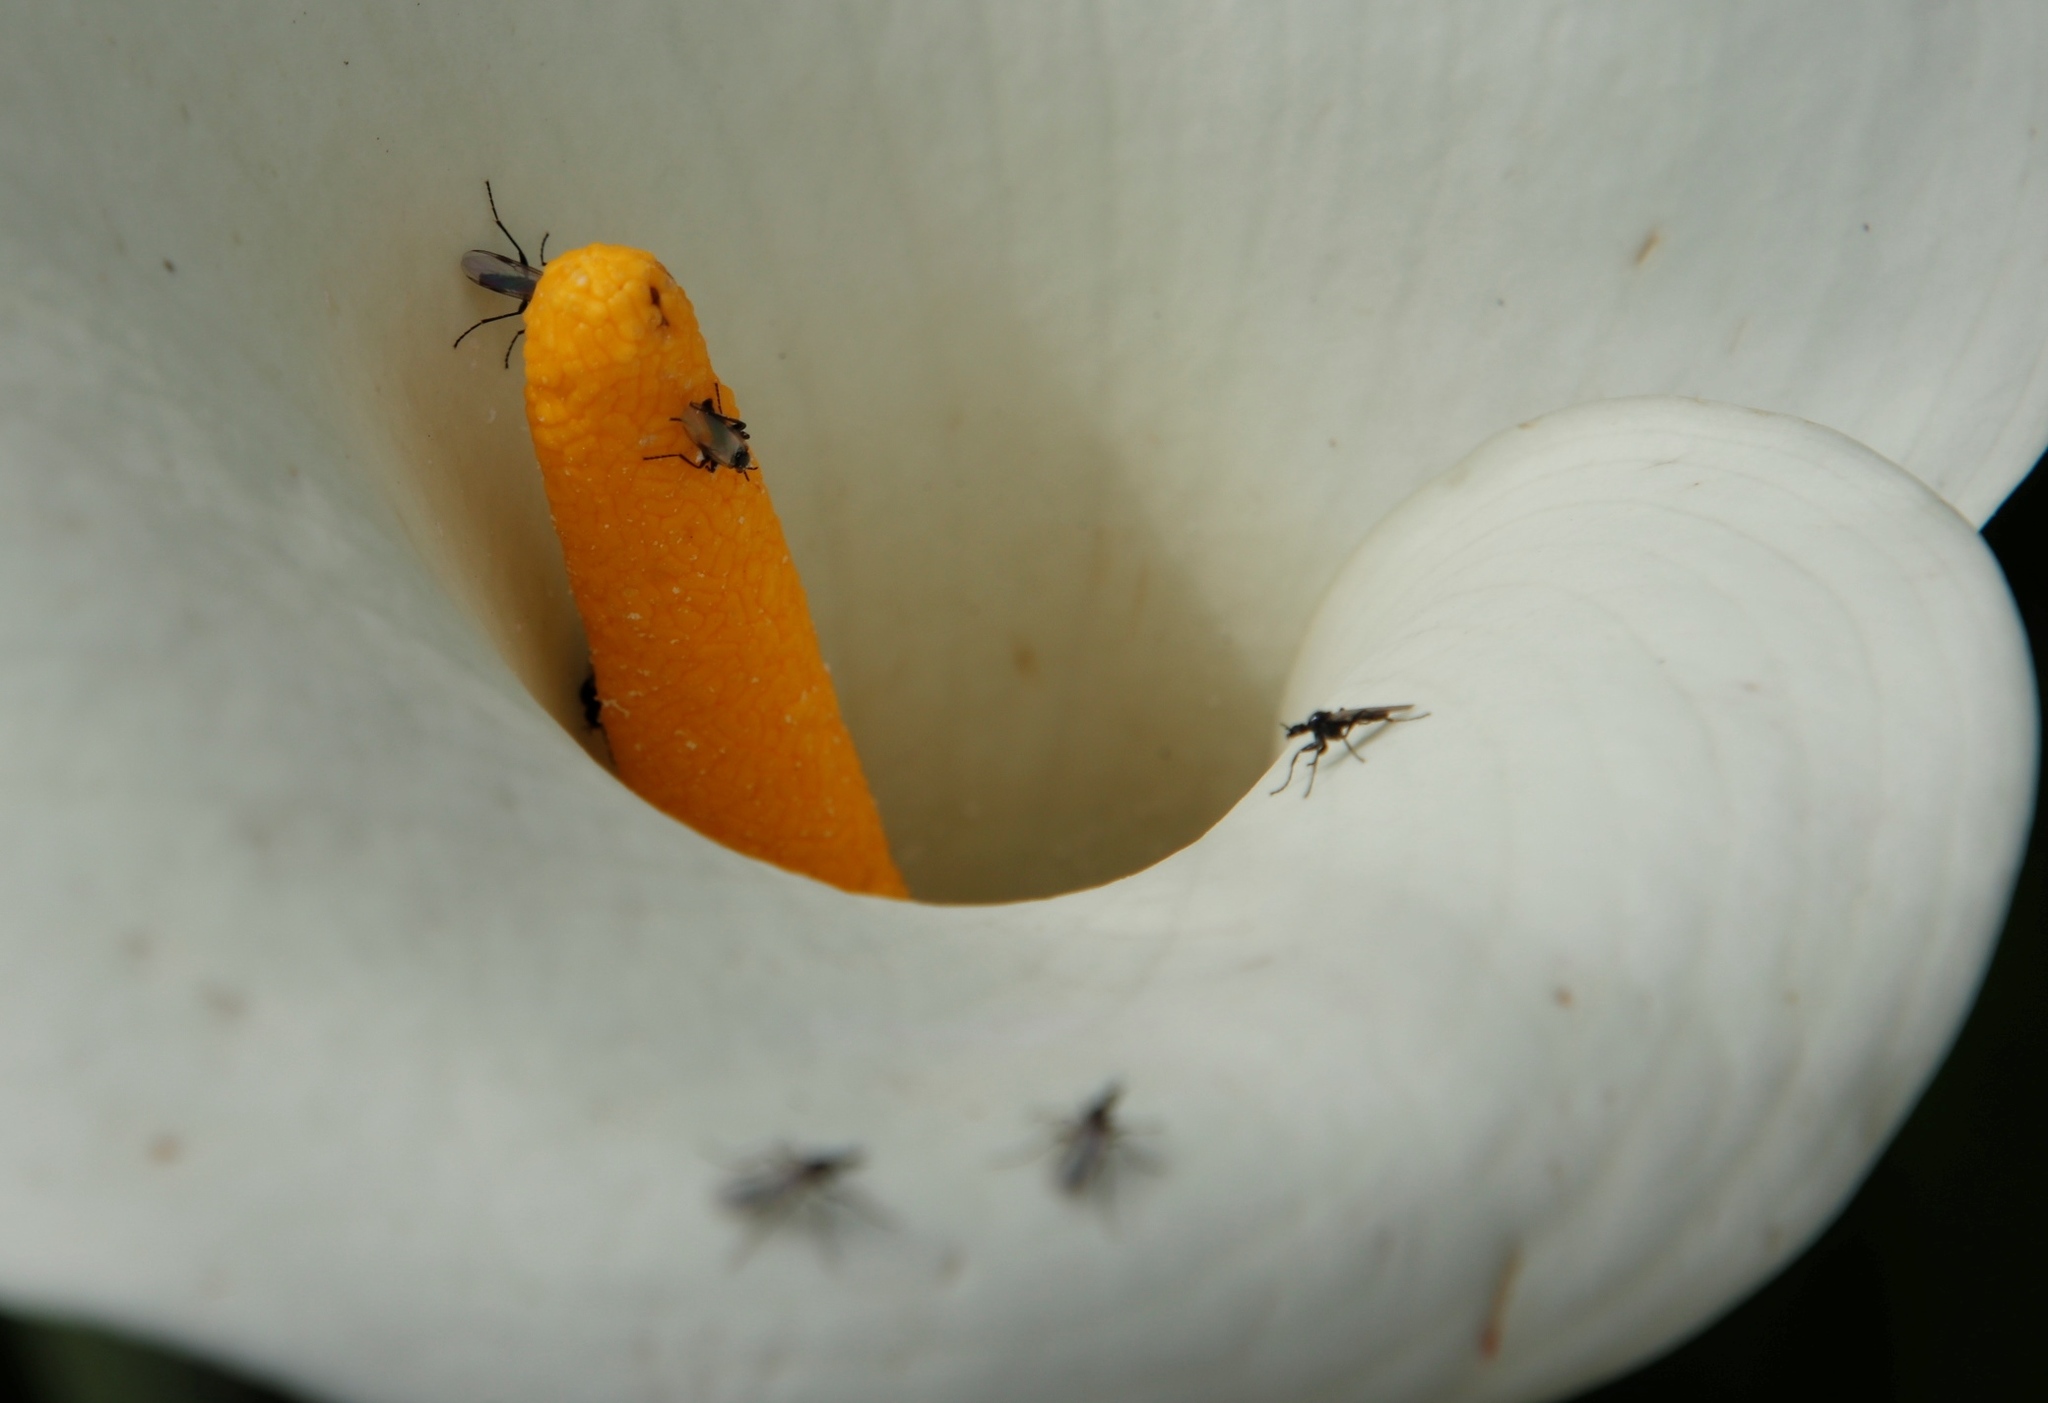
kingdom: Plantae
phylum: Tracheophyta
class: Liliopsida
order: Alismatales
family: Araceae
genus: Zantedeschia
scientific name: Zantedeschia aethiopica
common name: Altar-lily
